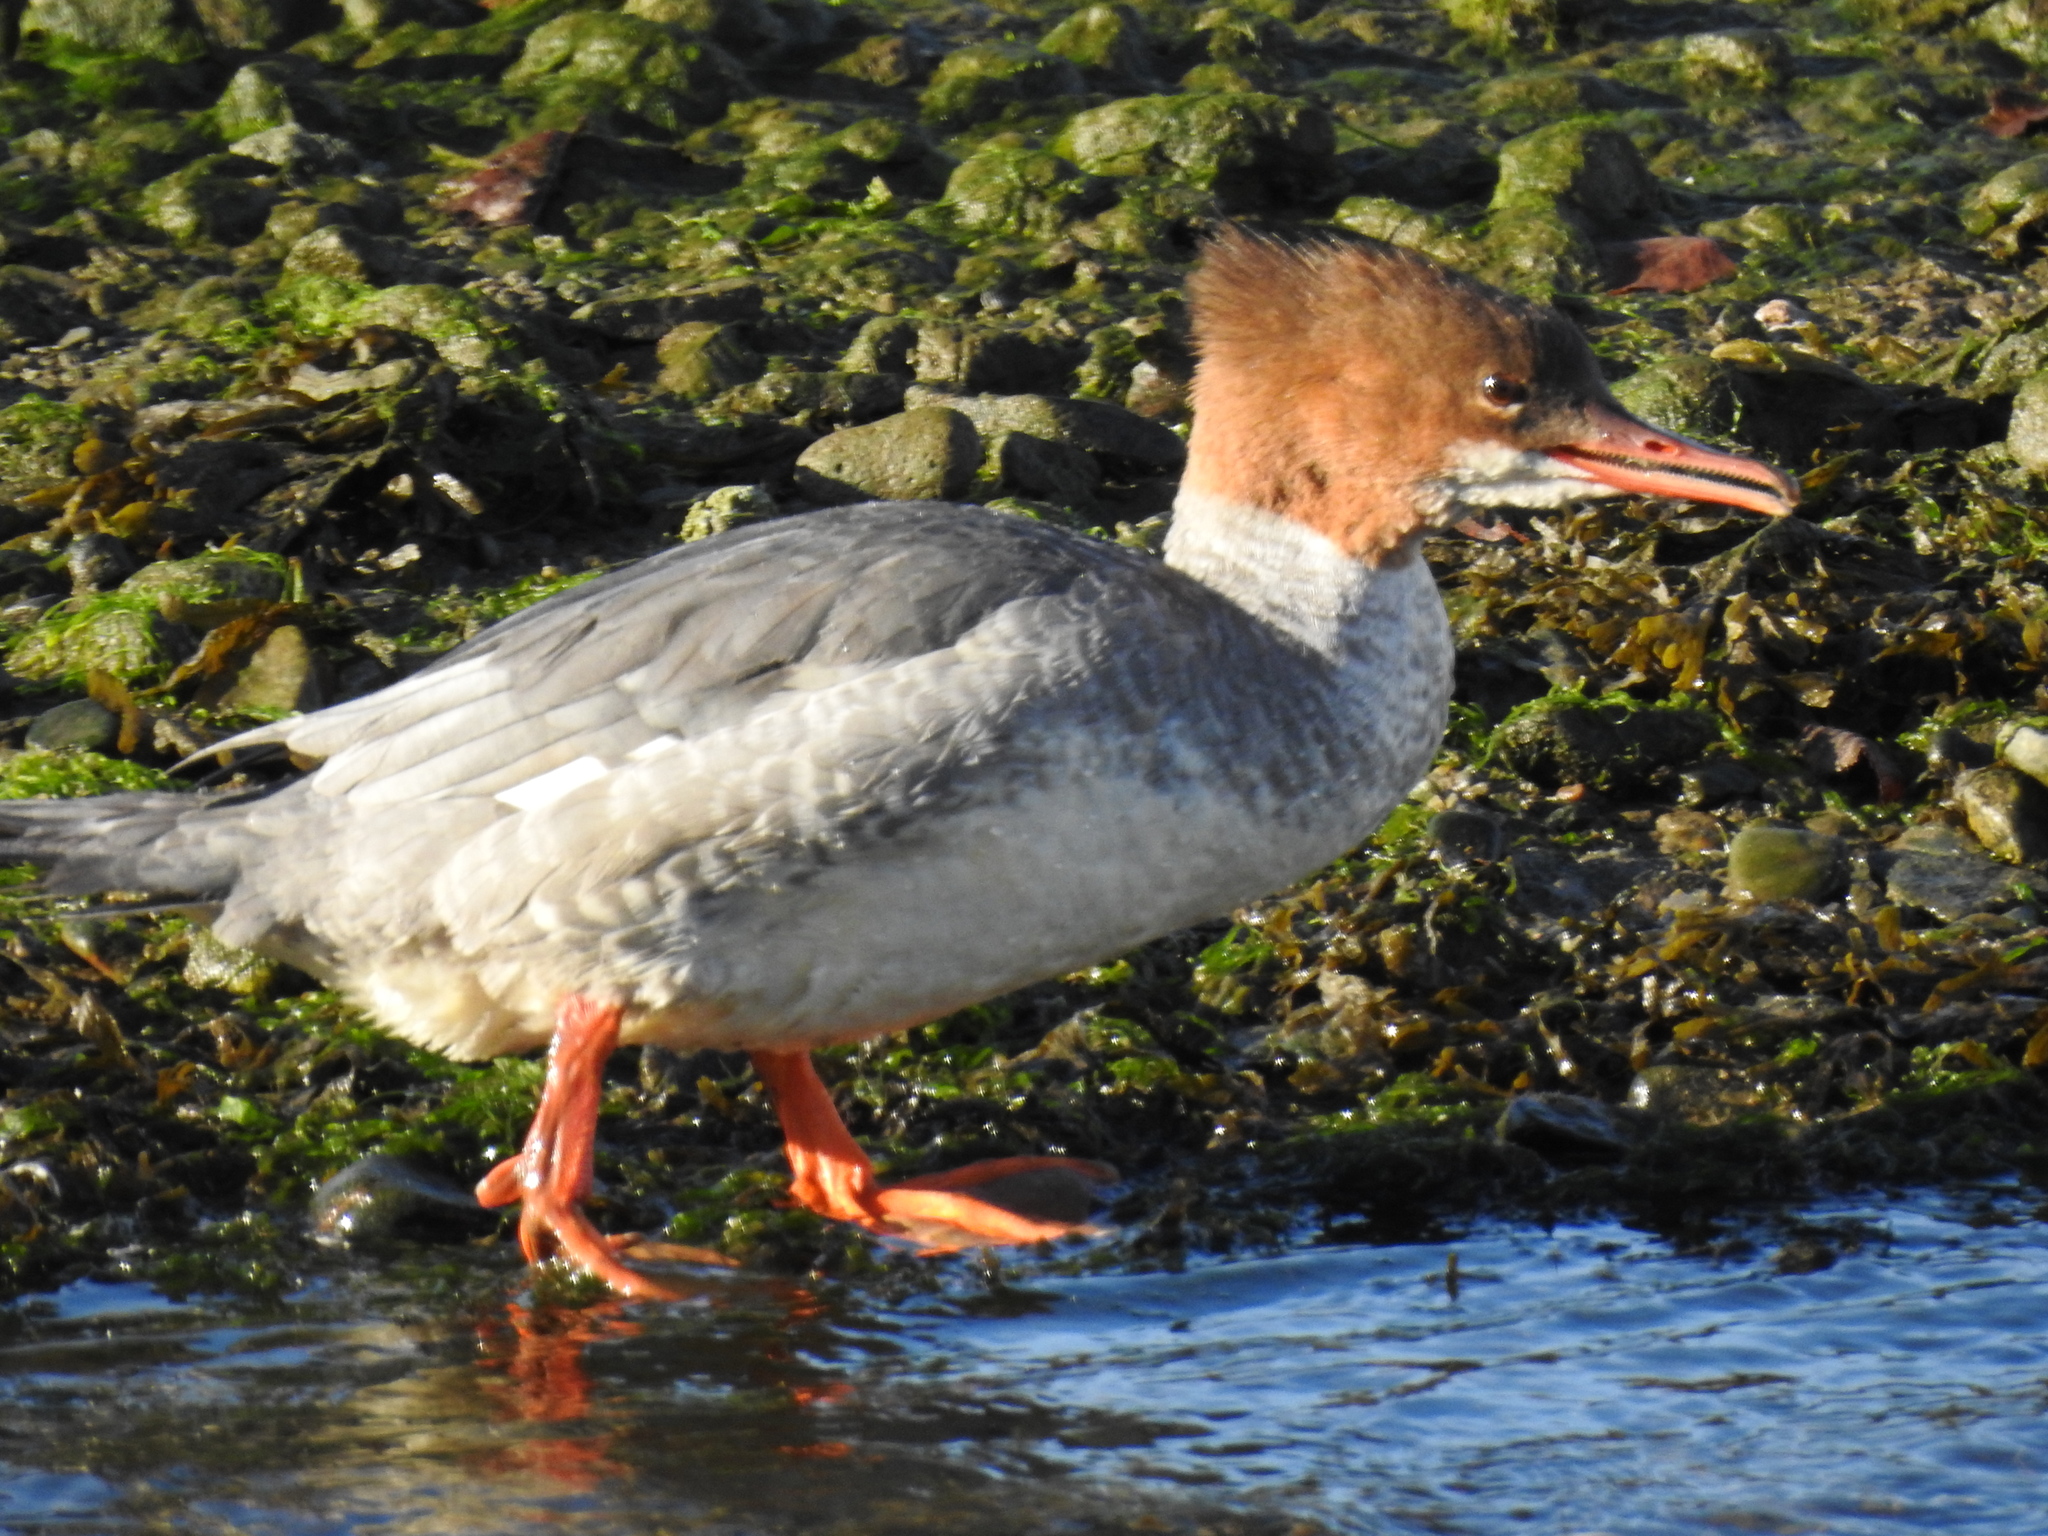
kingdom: Animalia
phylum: Chordata
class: Aves
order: Anseriformes
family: Anatidae
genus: Mergus
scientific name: Mergus merganser
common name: Common merganser
